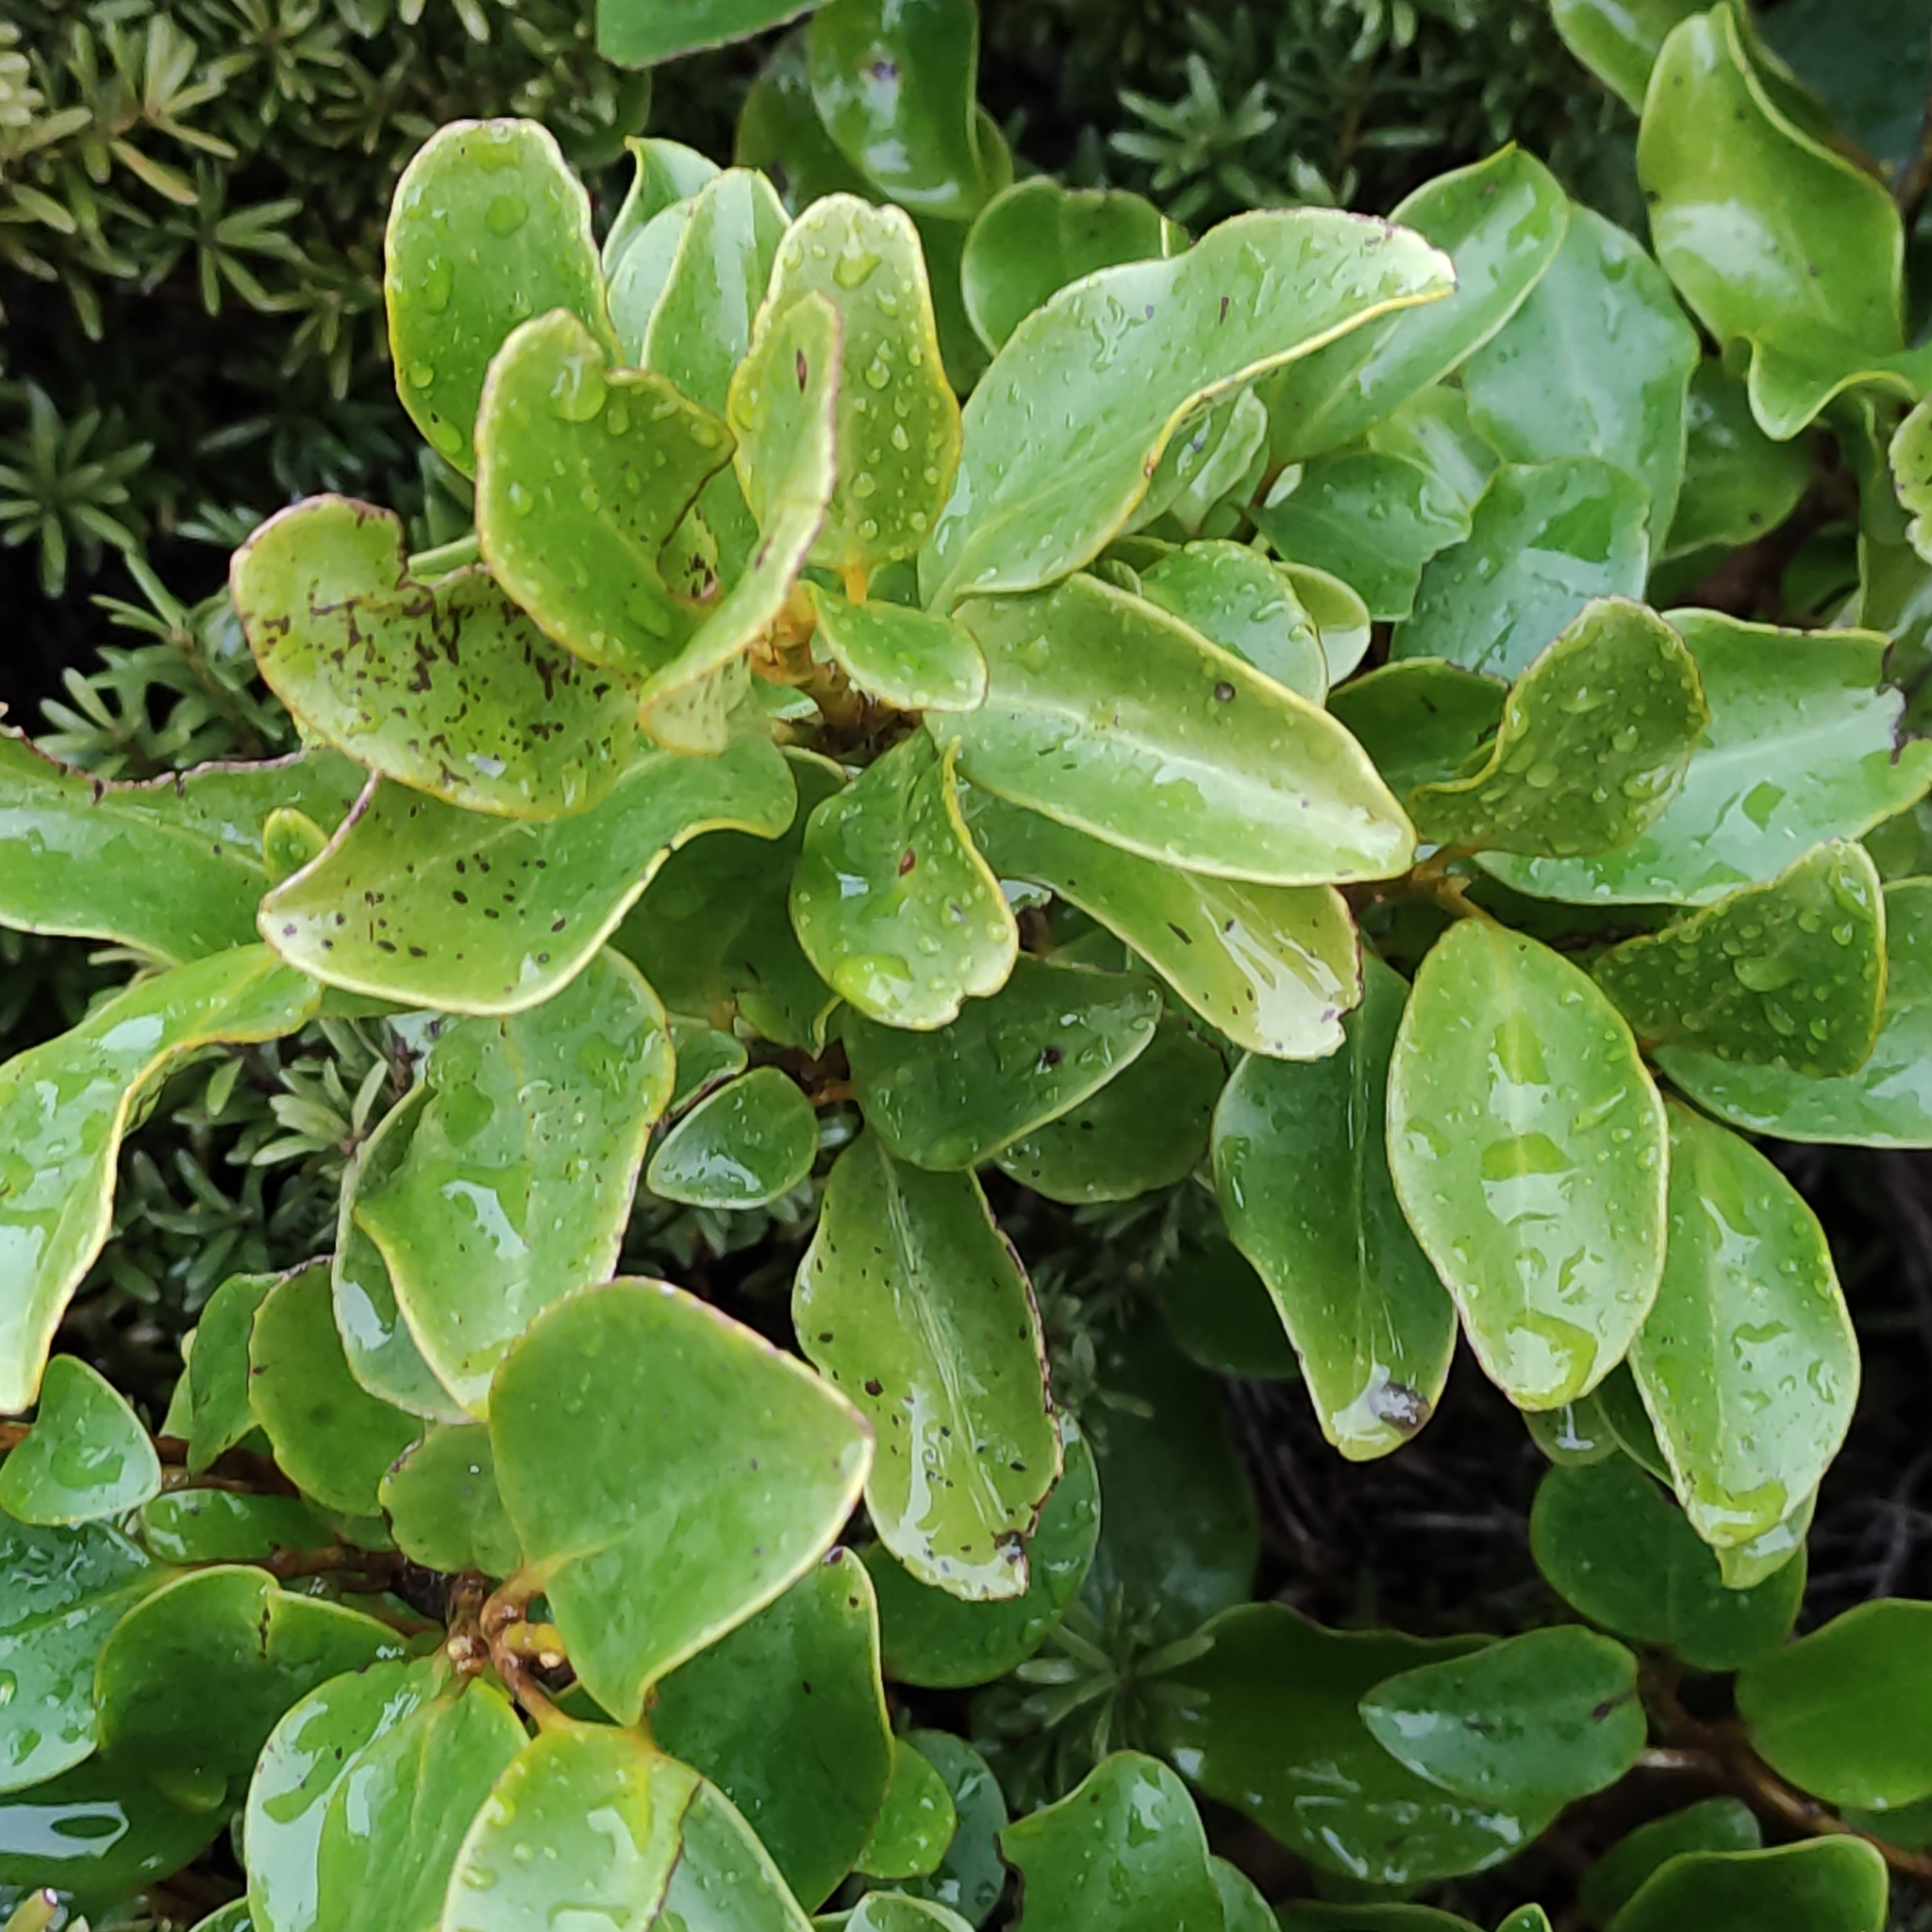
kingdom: Plantae
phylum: Tracheophyta
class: Magnoliopsida
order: Apiales
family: Griseliniaceae
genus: Griselinia
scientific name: Griselinia littoralis
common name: New zealand broadleaf
